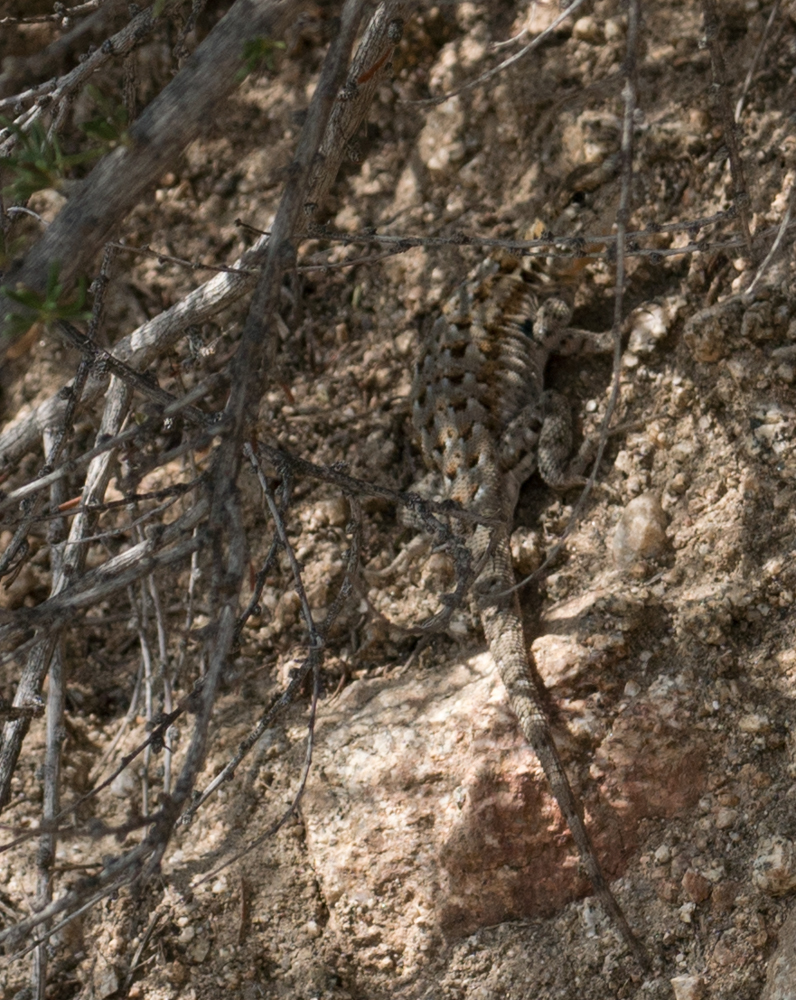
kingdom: Animalia
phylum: Chordata
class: Squamata
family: Phrynosomatidae
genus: Uta
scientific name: Uta stansburiana
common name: Side-blotched lizard
